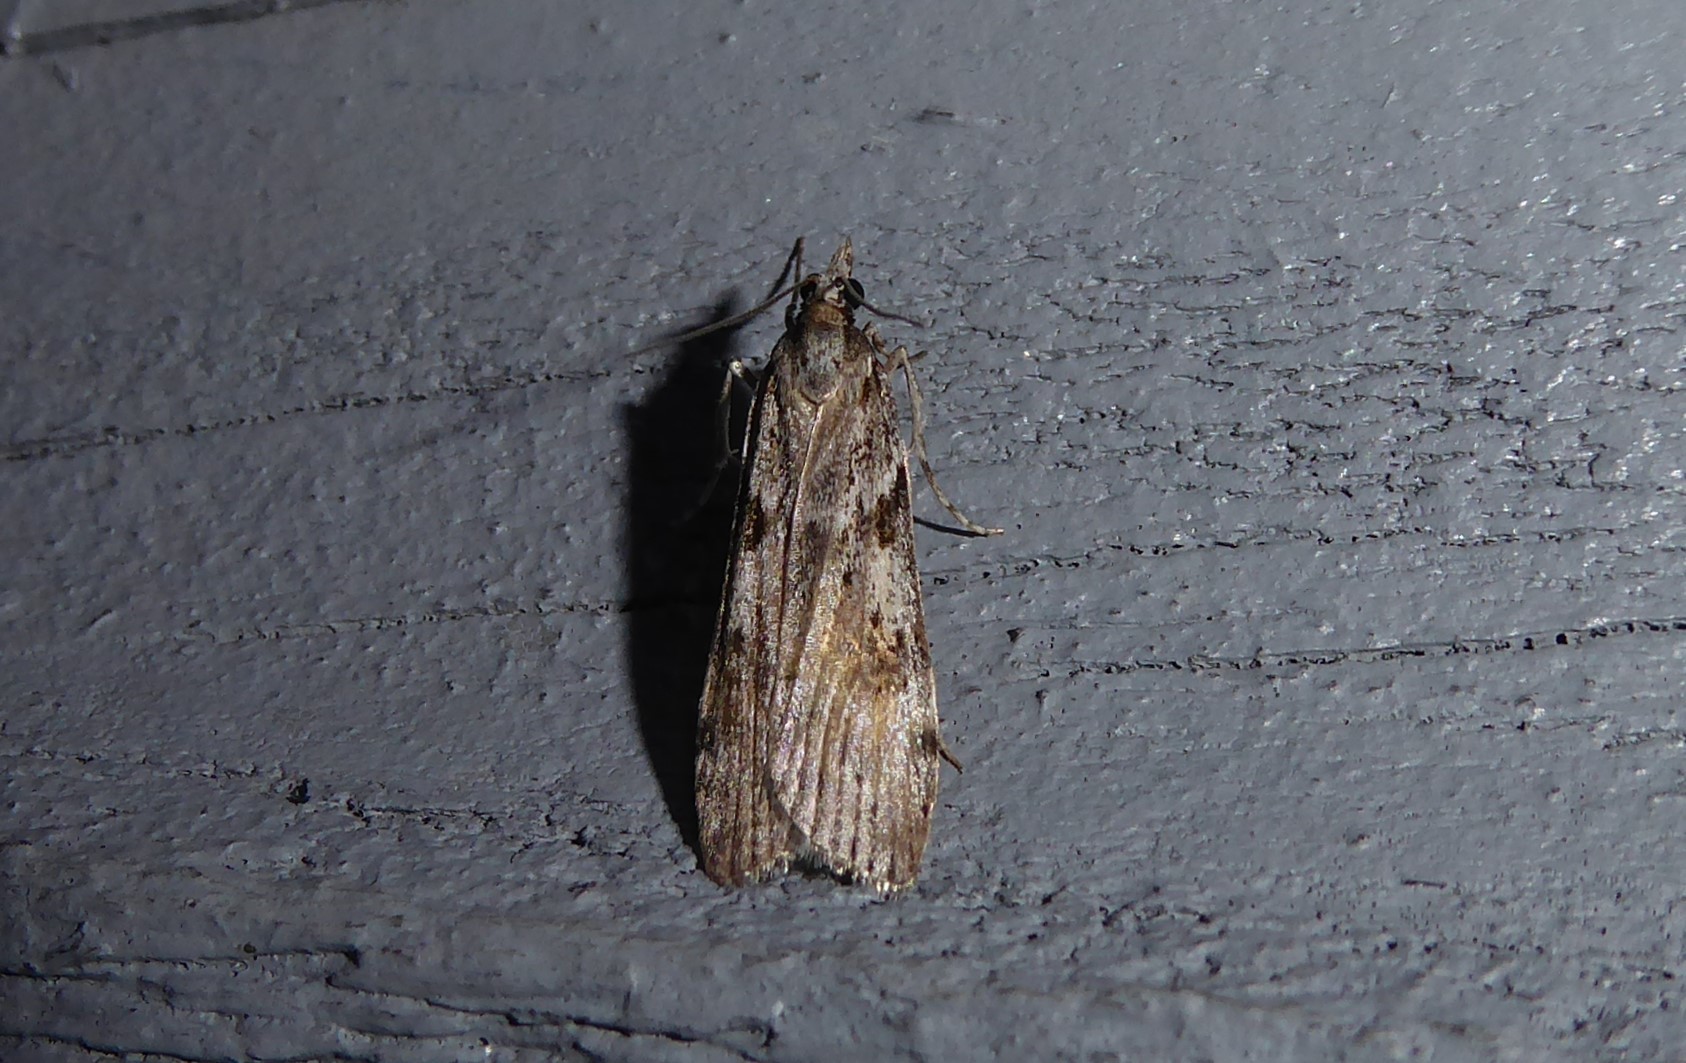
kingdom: Animalia
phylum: Arthropoda
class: Insecta
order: Lepidoptera
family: Crambidae
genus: Scoparia
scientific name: Scoparia halopis
